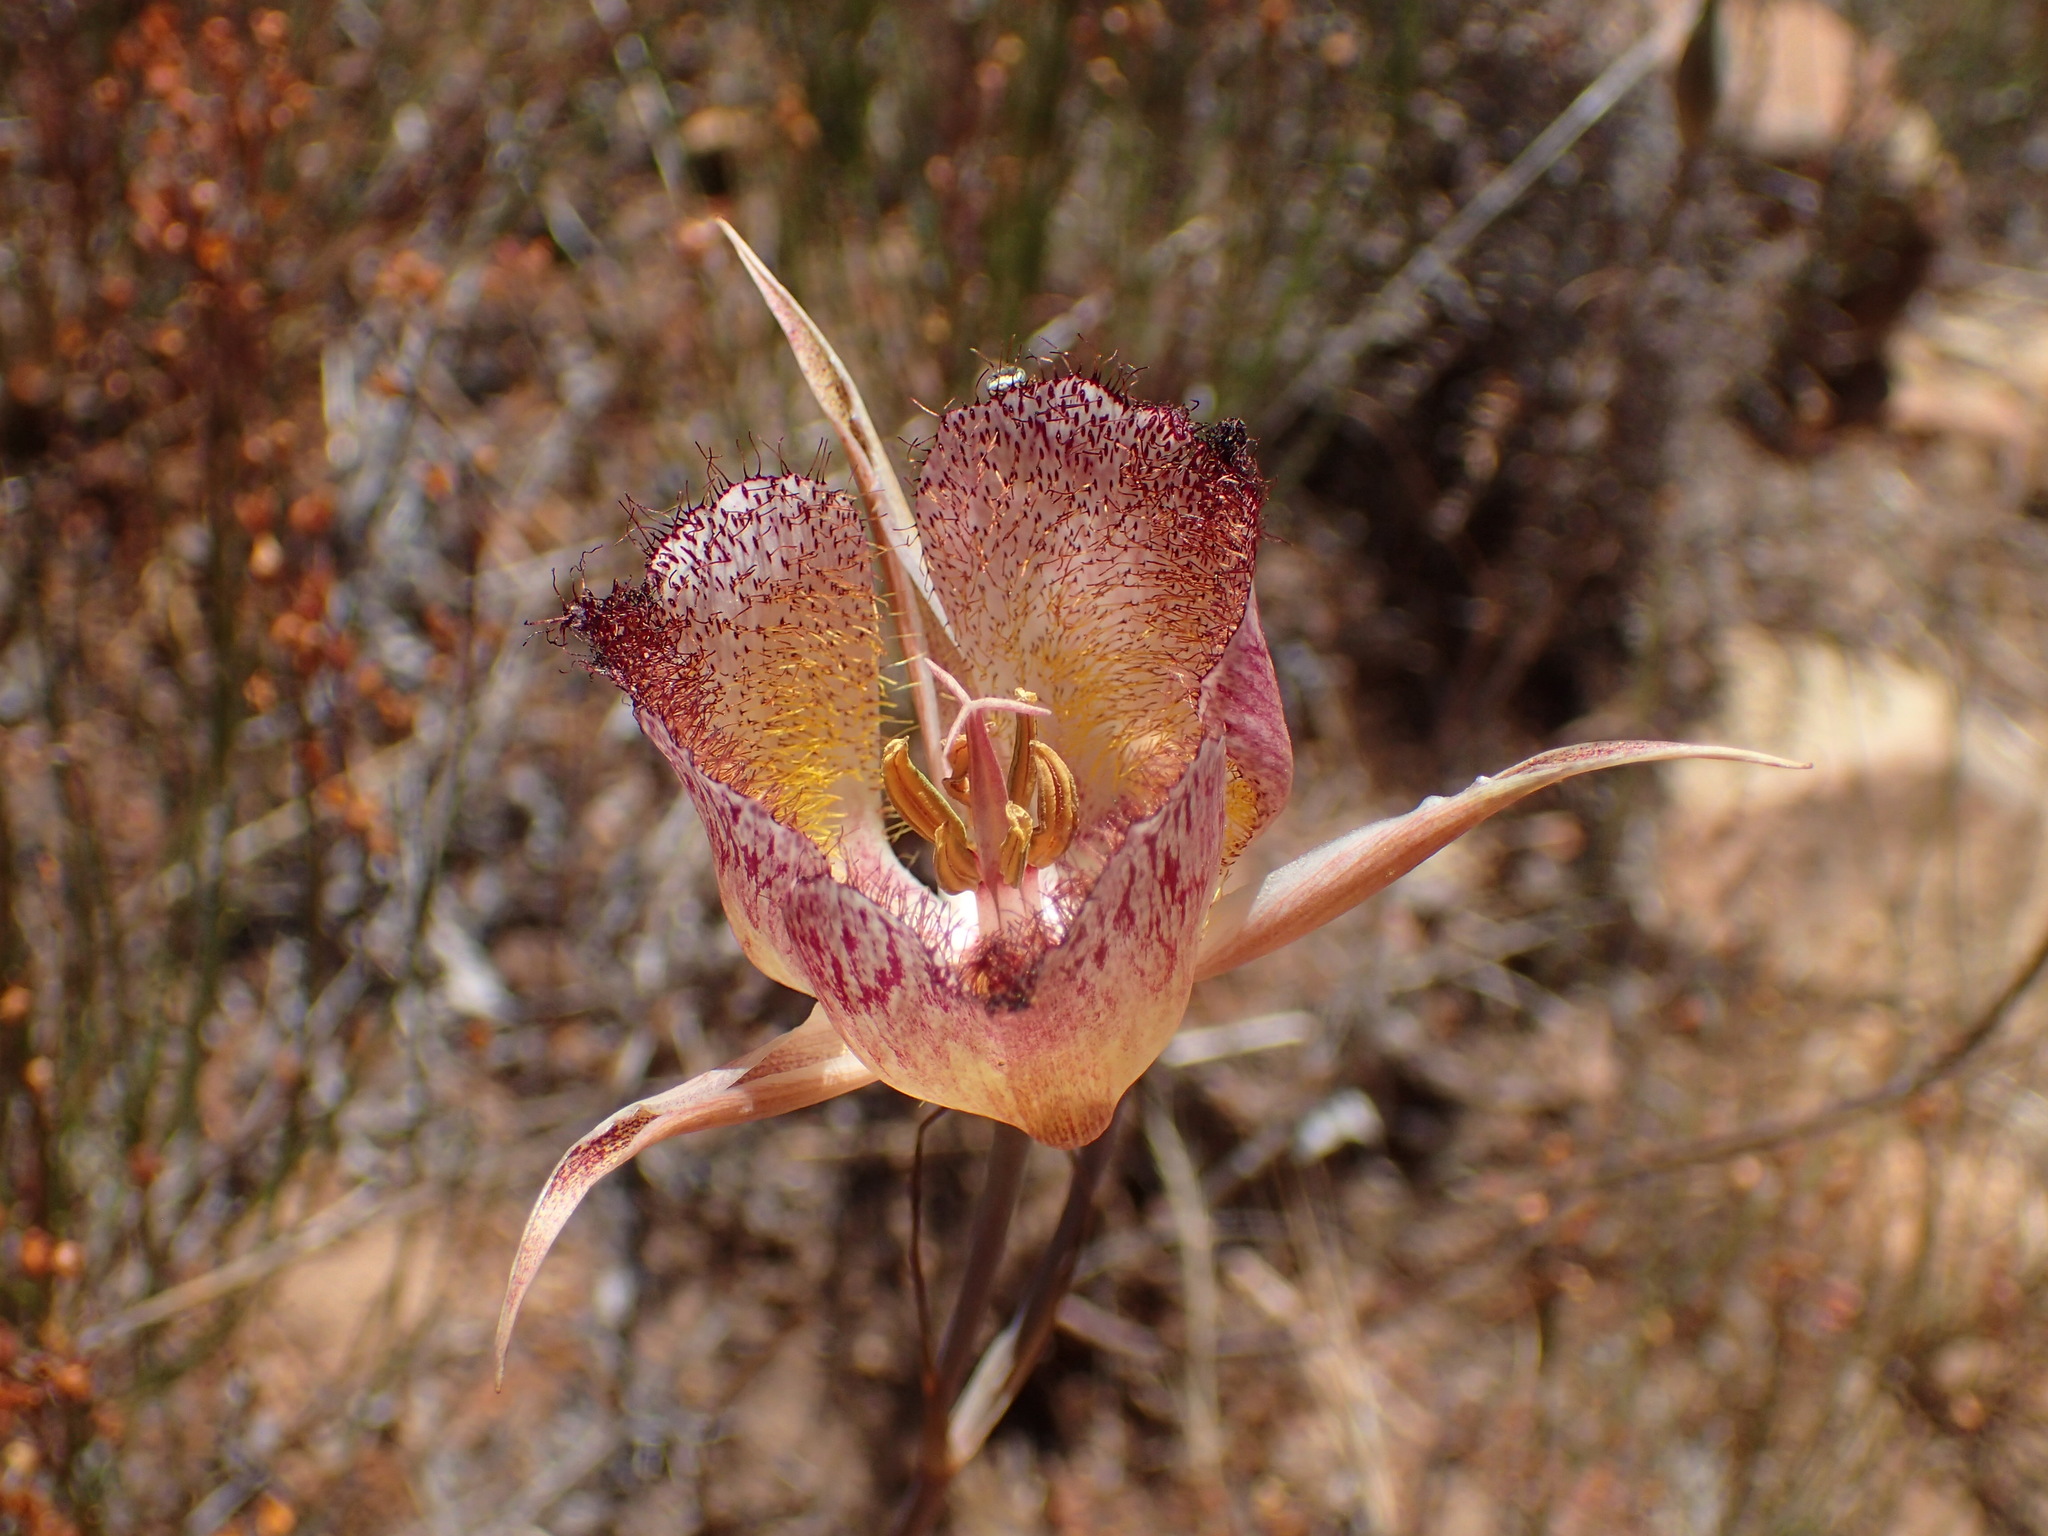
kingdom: Plantae
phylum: Tracheophyta
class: Liliopsida
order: Liliales
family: Liliaceae
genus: Calochortus
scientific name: Calochortus fimbriatus
